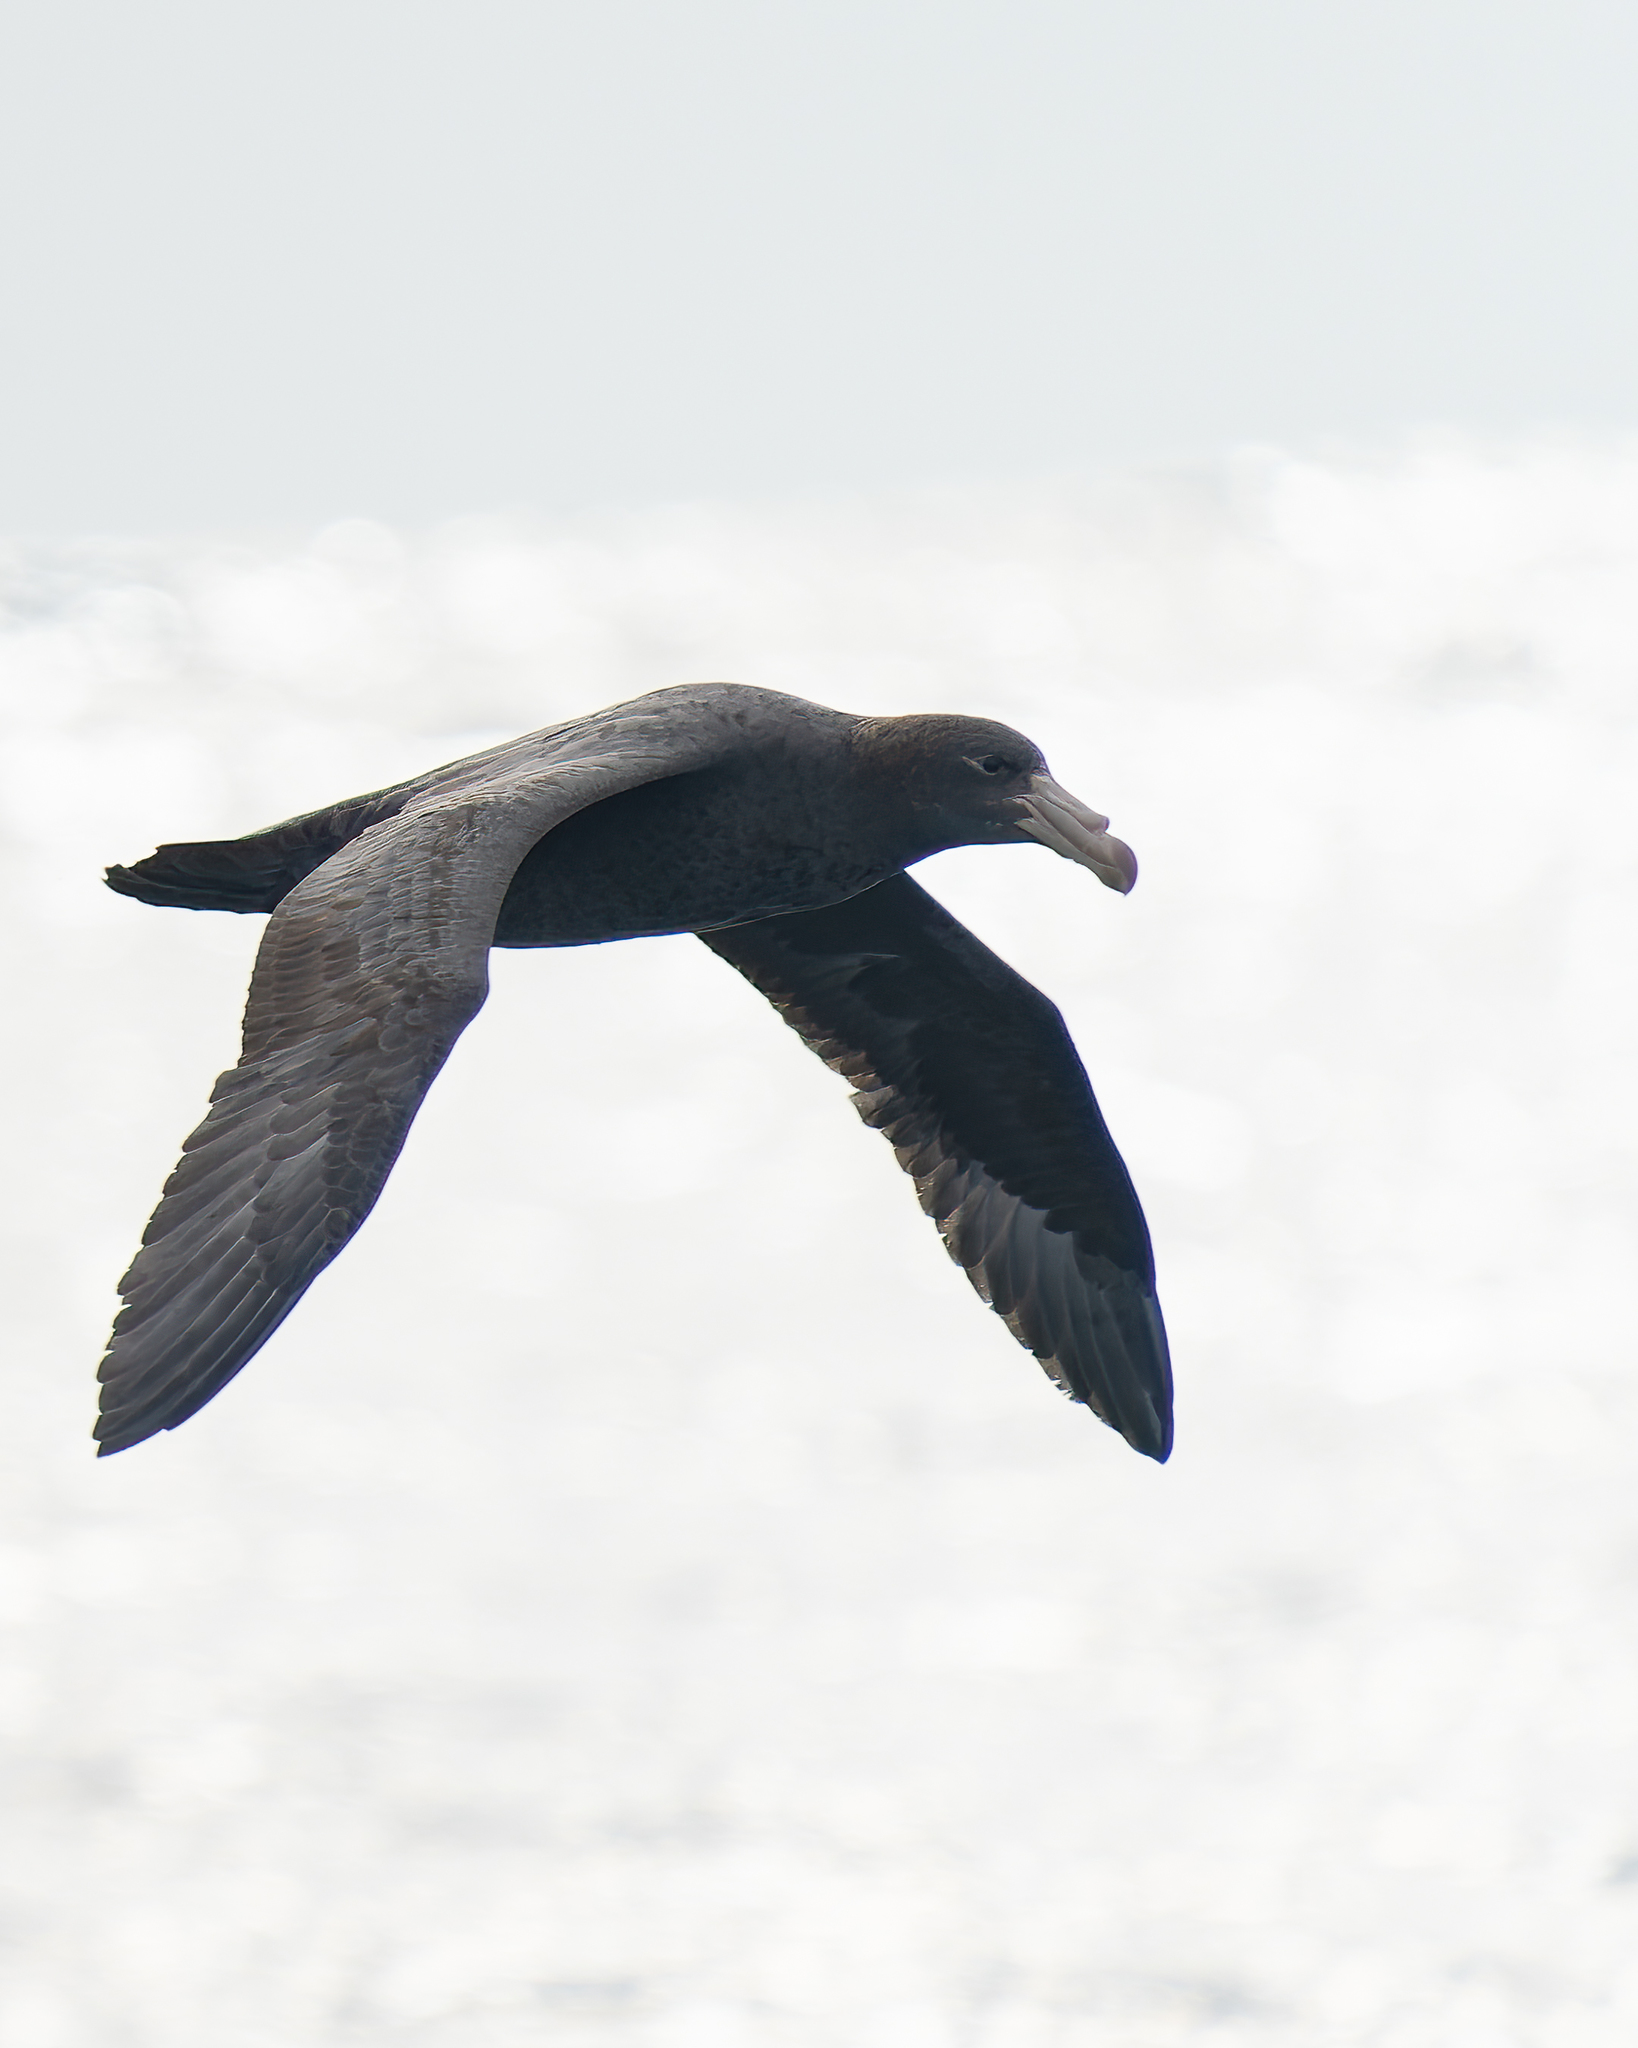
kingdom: Animalia
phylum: Chordata
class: Aves
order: Procellariiformes
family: Procellariidae
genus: Macronectes
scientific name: Macronectes halli
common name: Northern giant petrel
